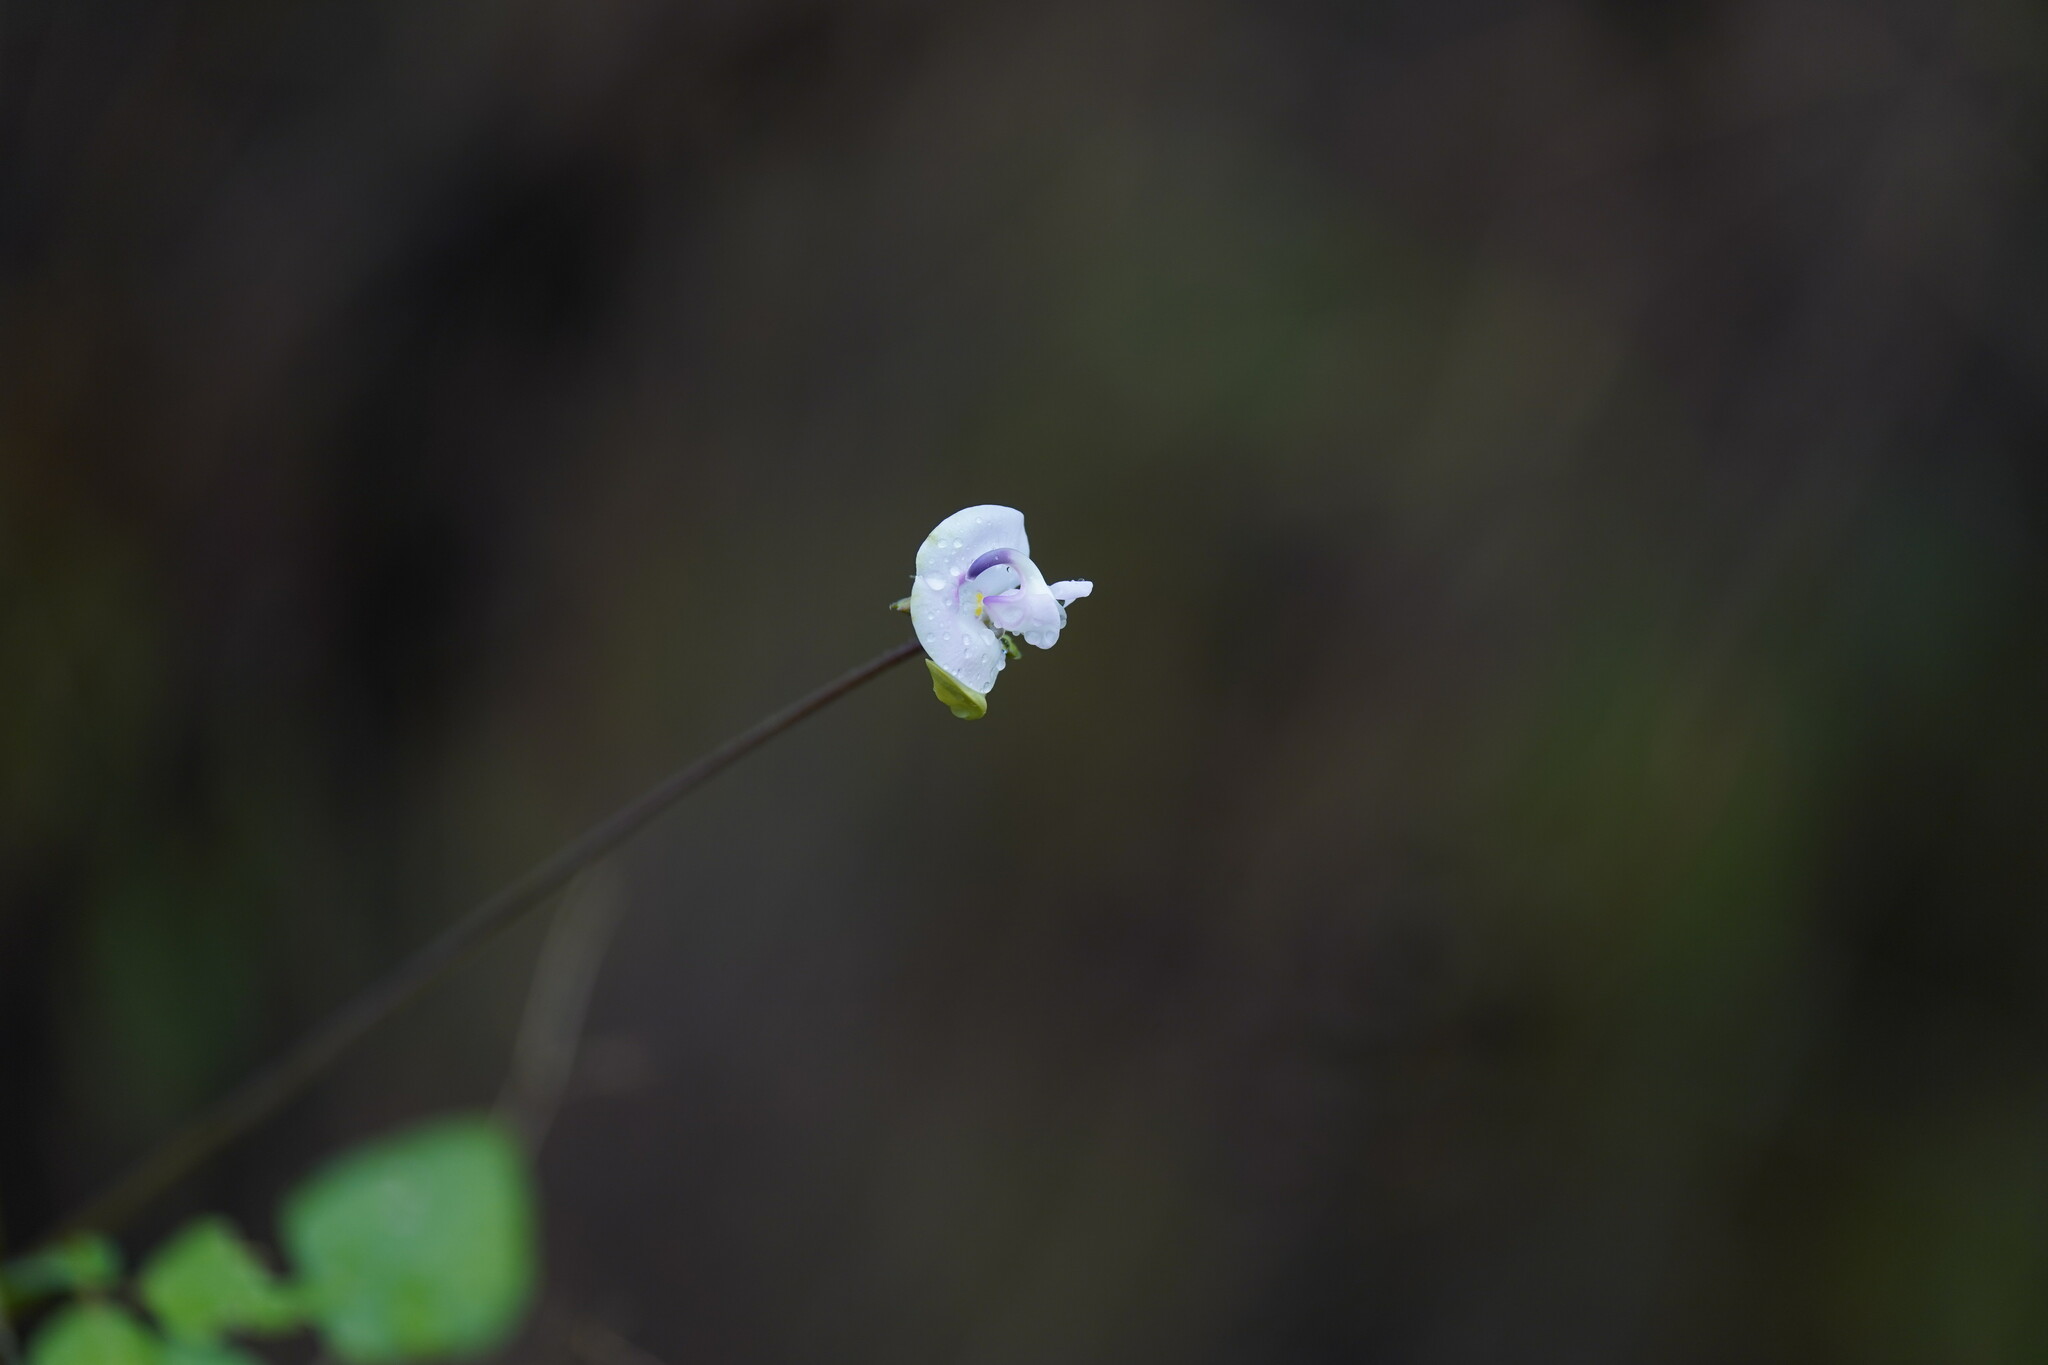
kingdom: Plantae
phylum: Tracheophyta
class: Magnoliopsida
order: Fabales
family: Fabaceae
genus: Strophostyles
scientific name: Strophostyles helvola
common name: Trailing wild bean
